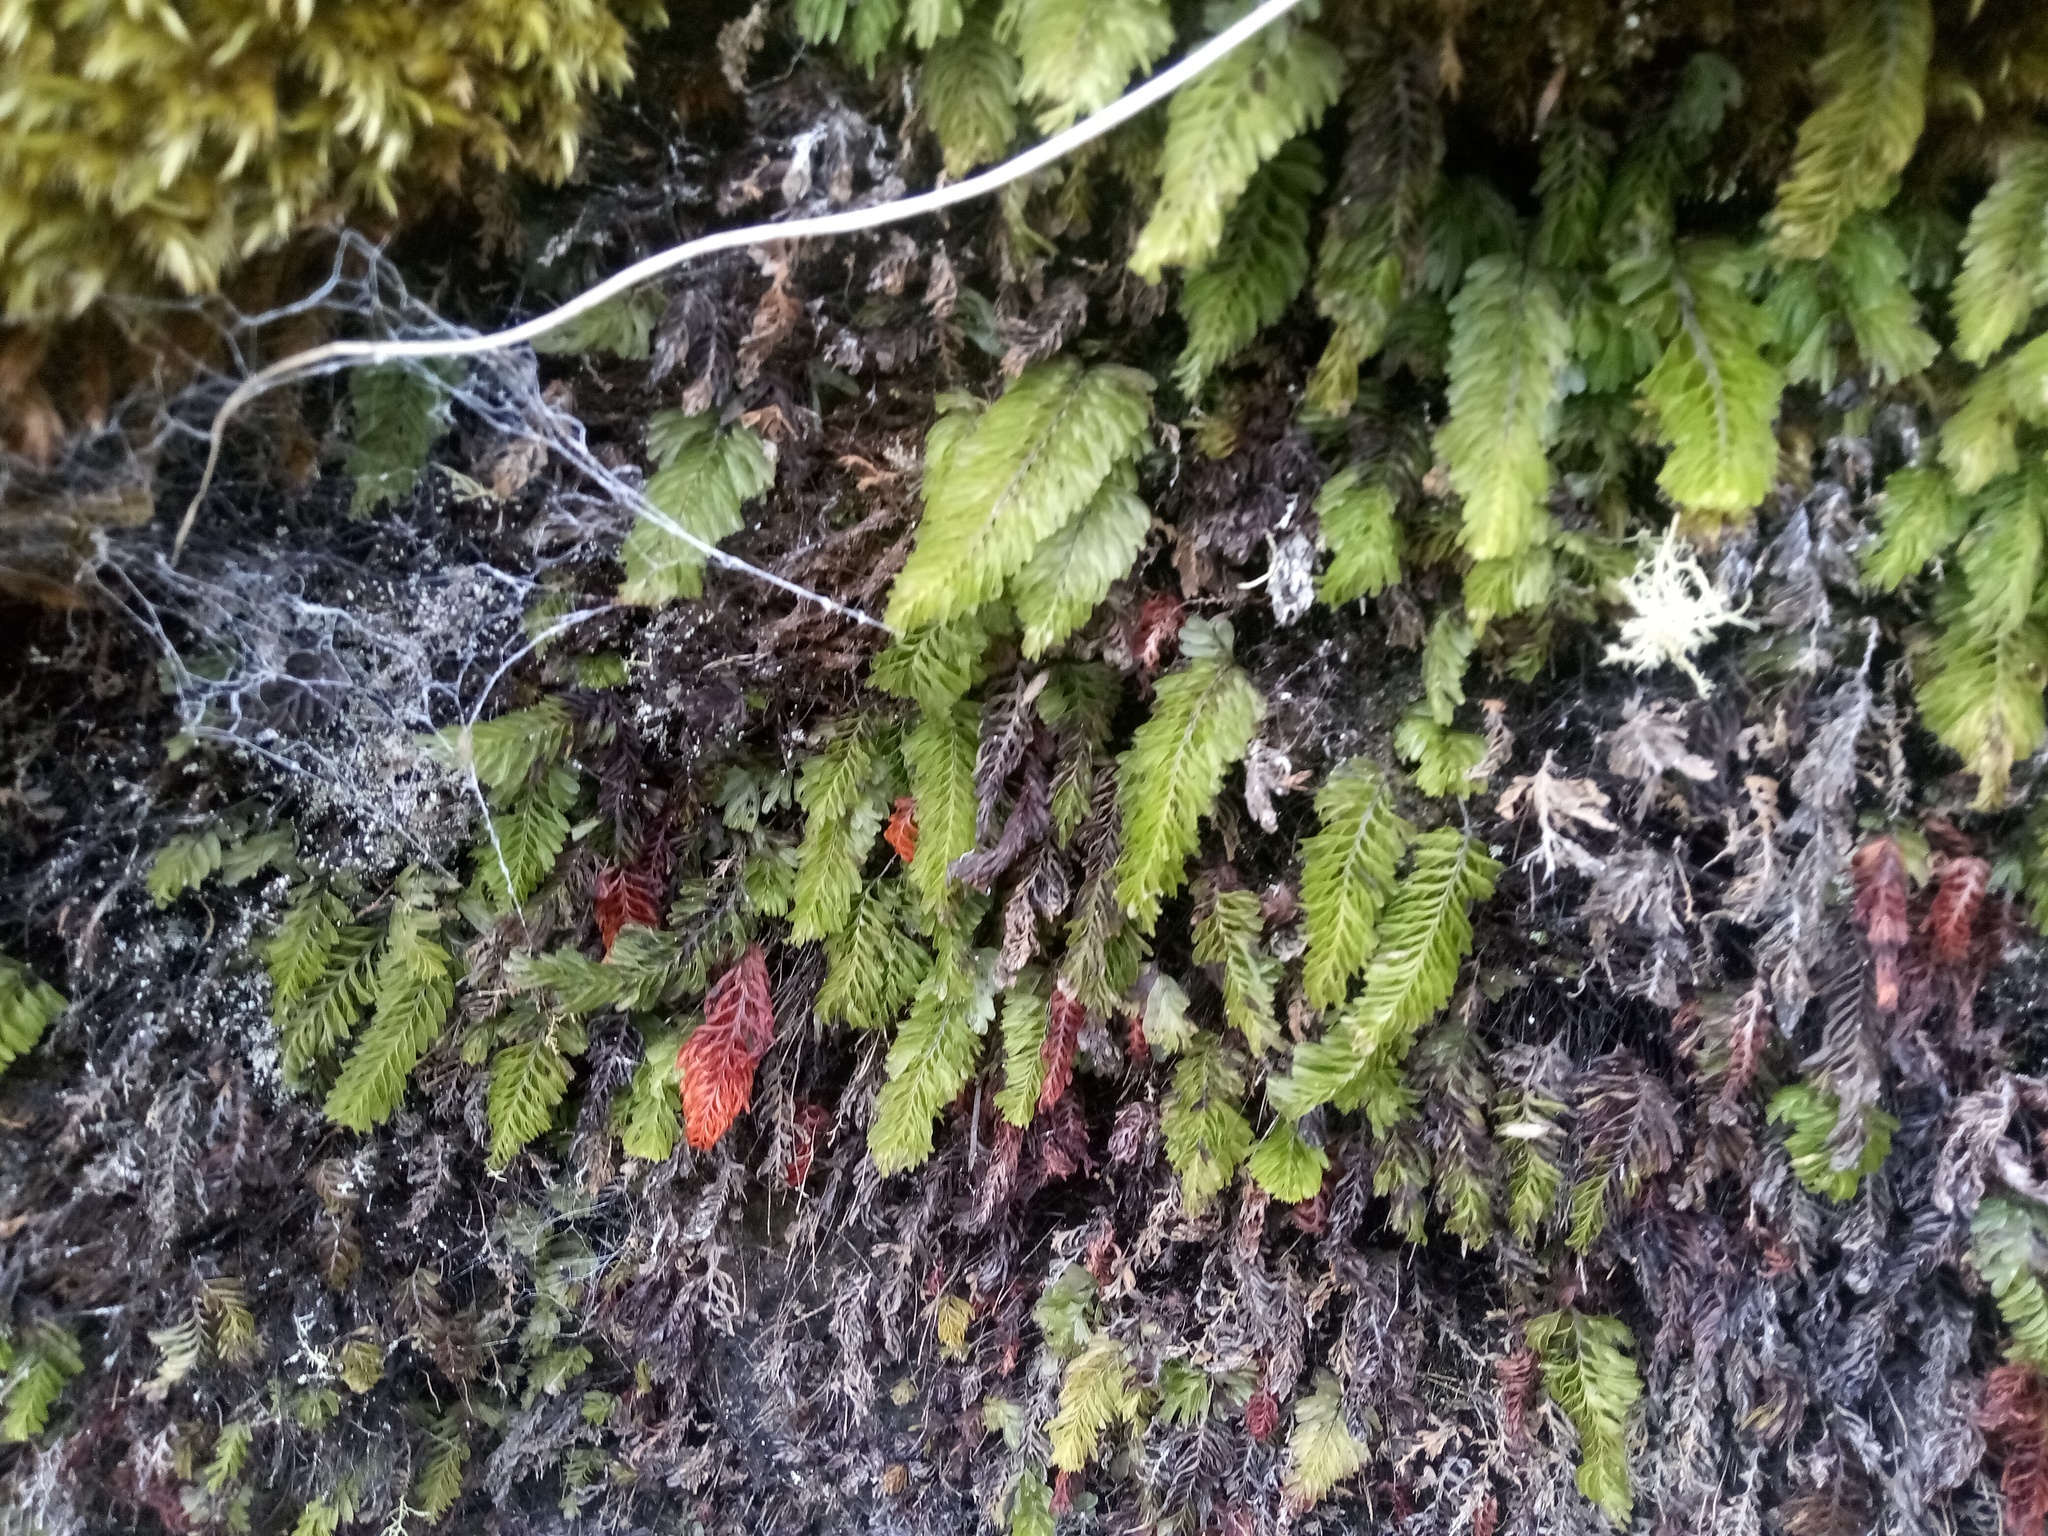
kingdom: Plantae
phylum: Tracheophyta
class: Polypodiopsida
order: Hymenophyllales
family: Hymenophyllaceae
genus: Hymenophyllum
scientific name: Hymenophyllum capense
